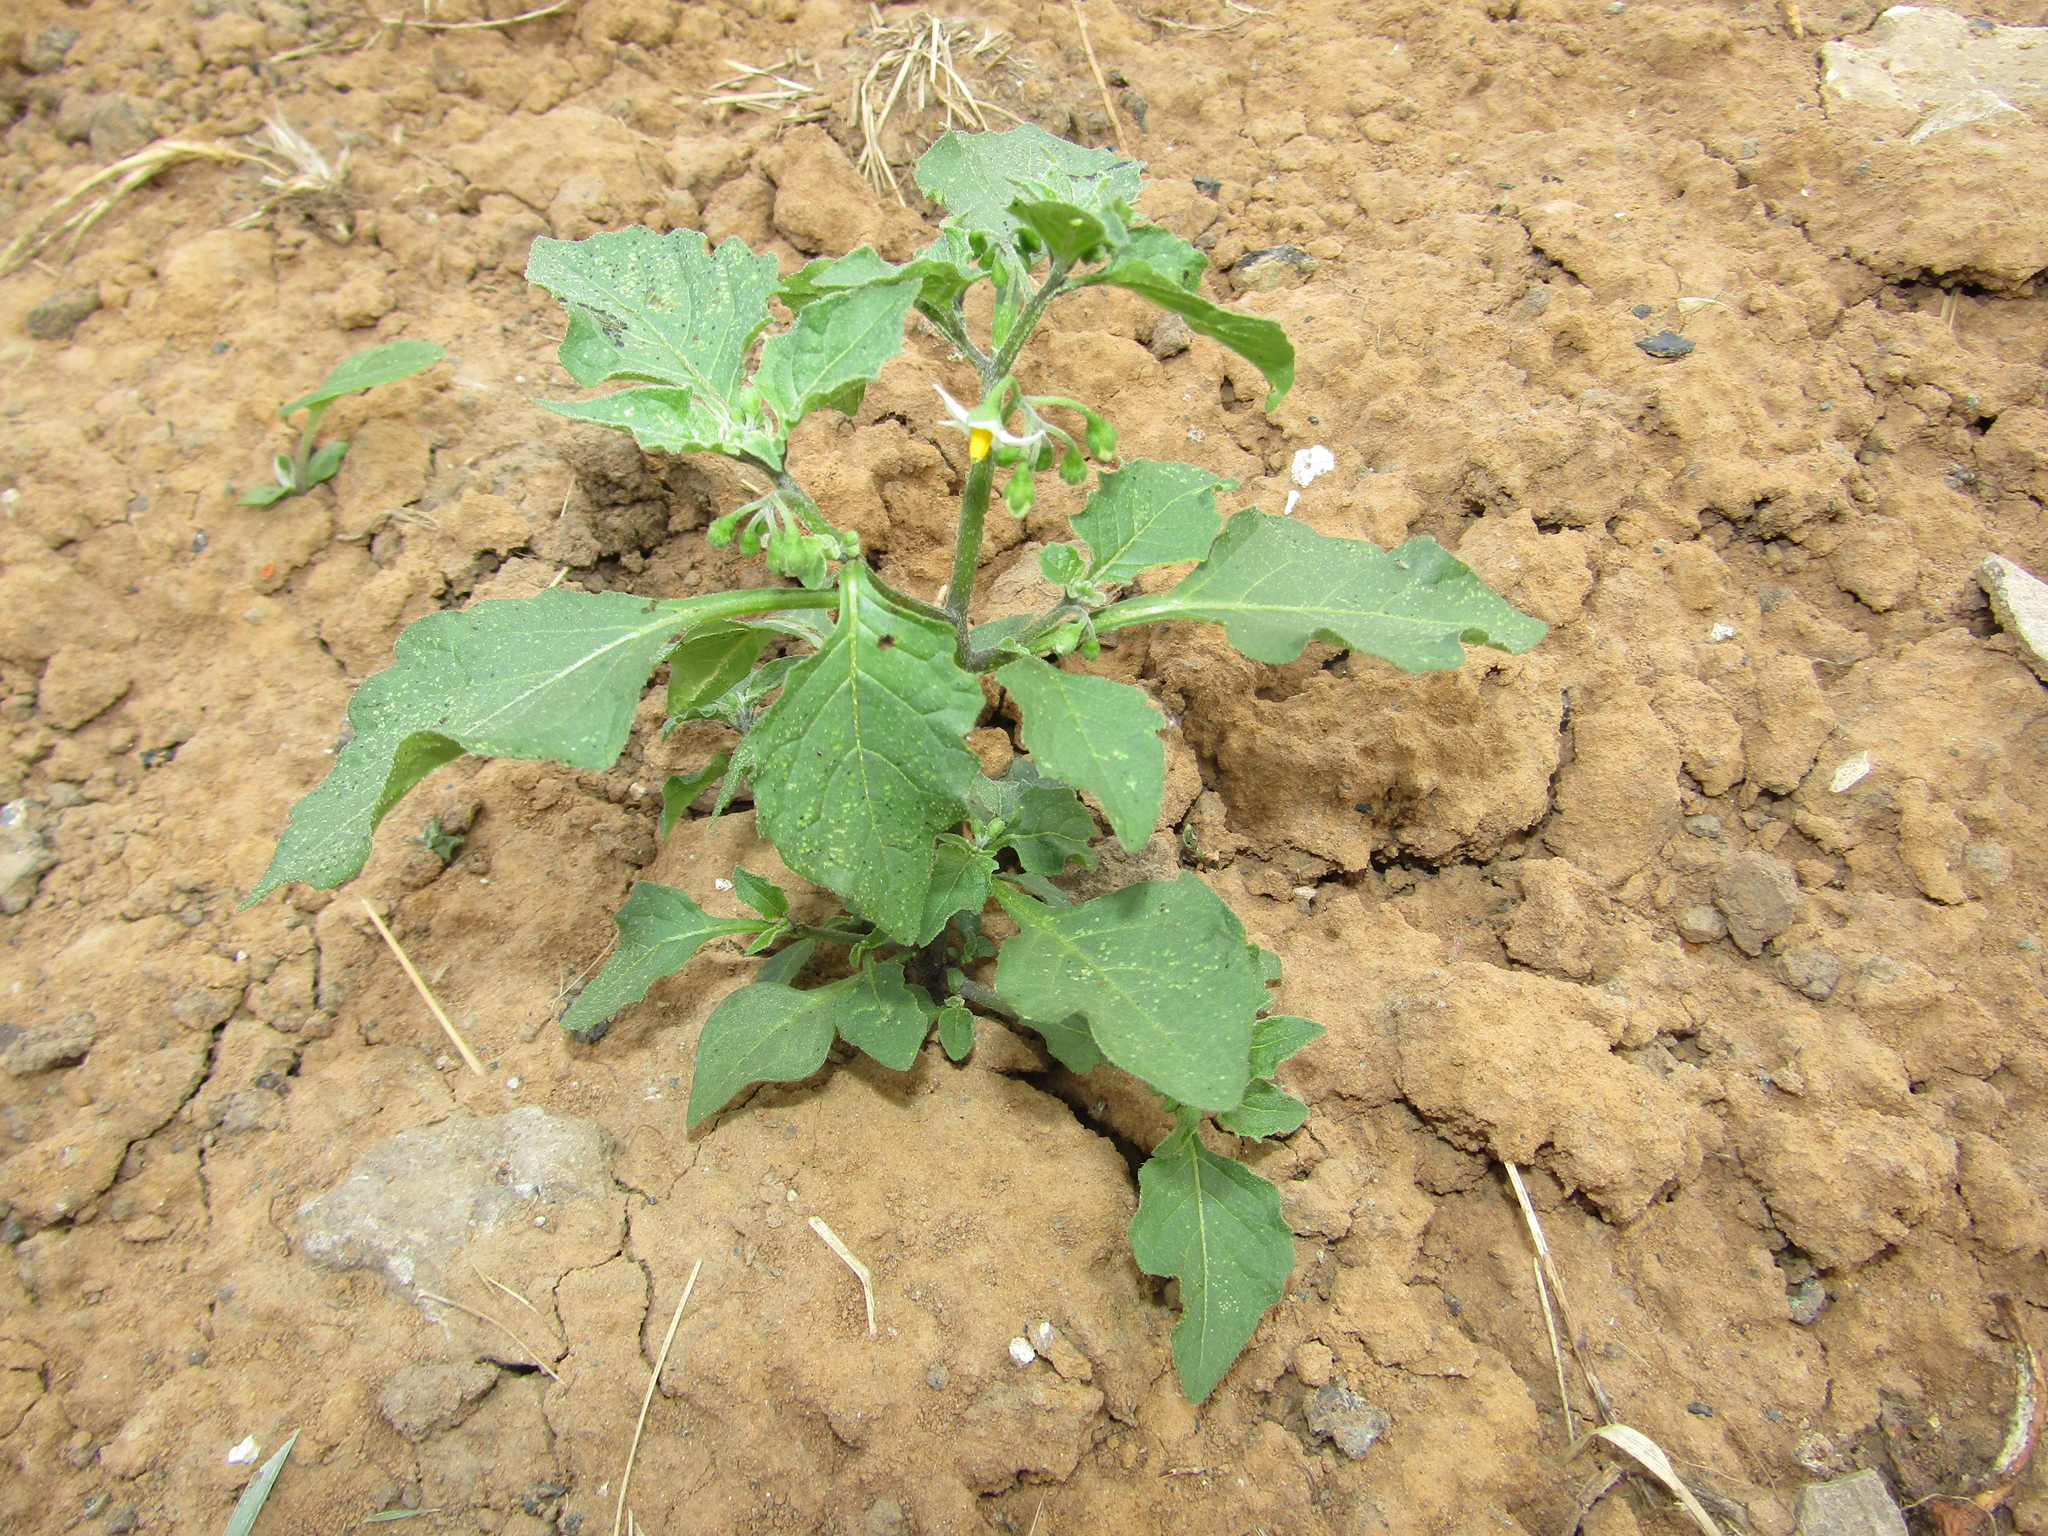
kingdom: Plantae
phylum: Tracheophyta
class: Magnoliopsida
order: Solanales
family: Solanaceae
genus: Solanum
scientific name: Solanum nigrum
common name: Black nightshade
